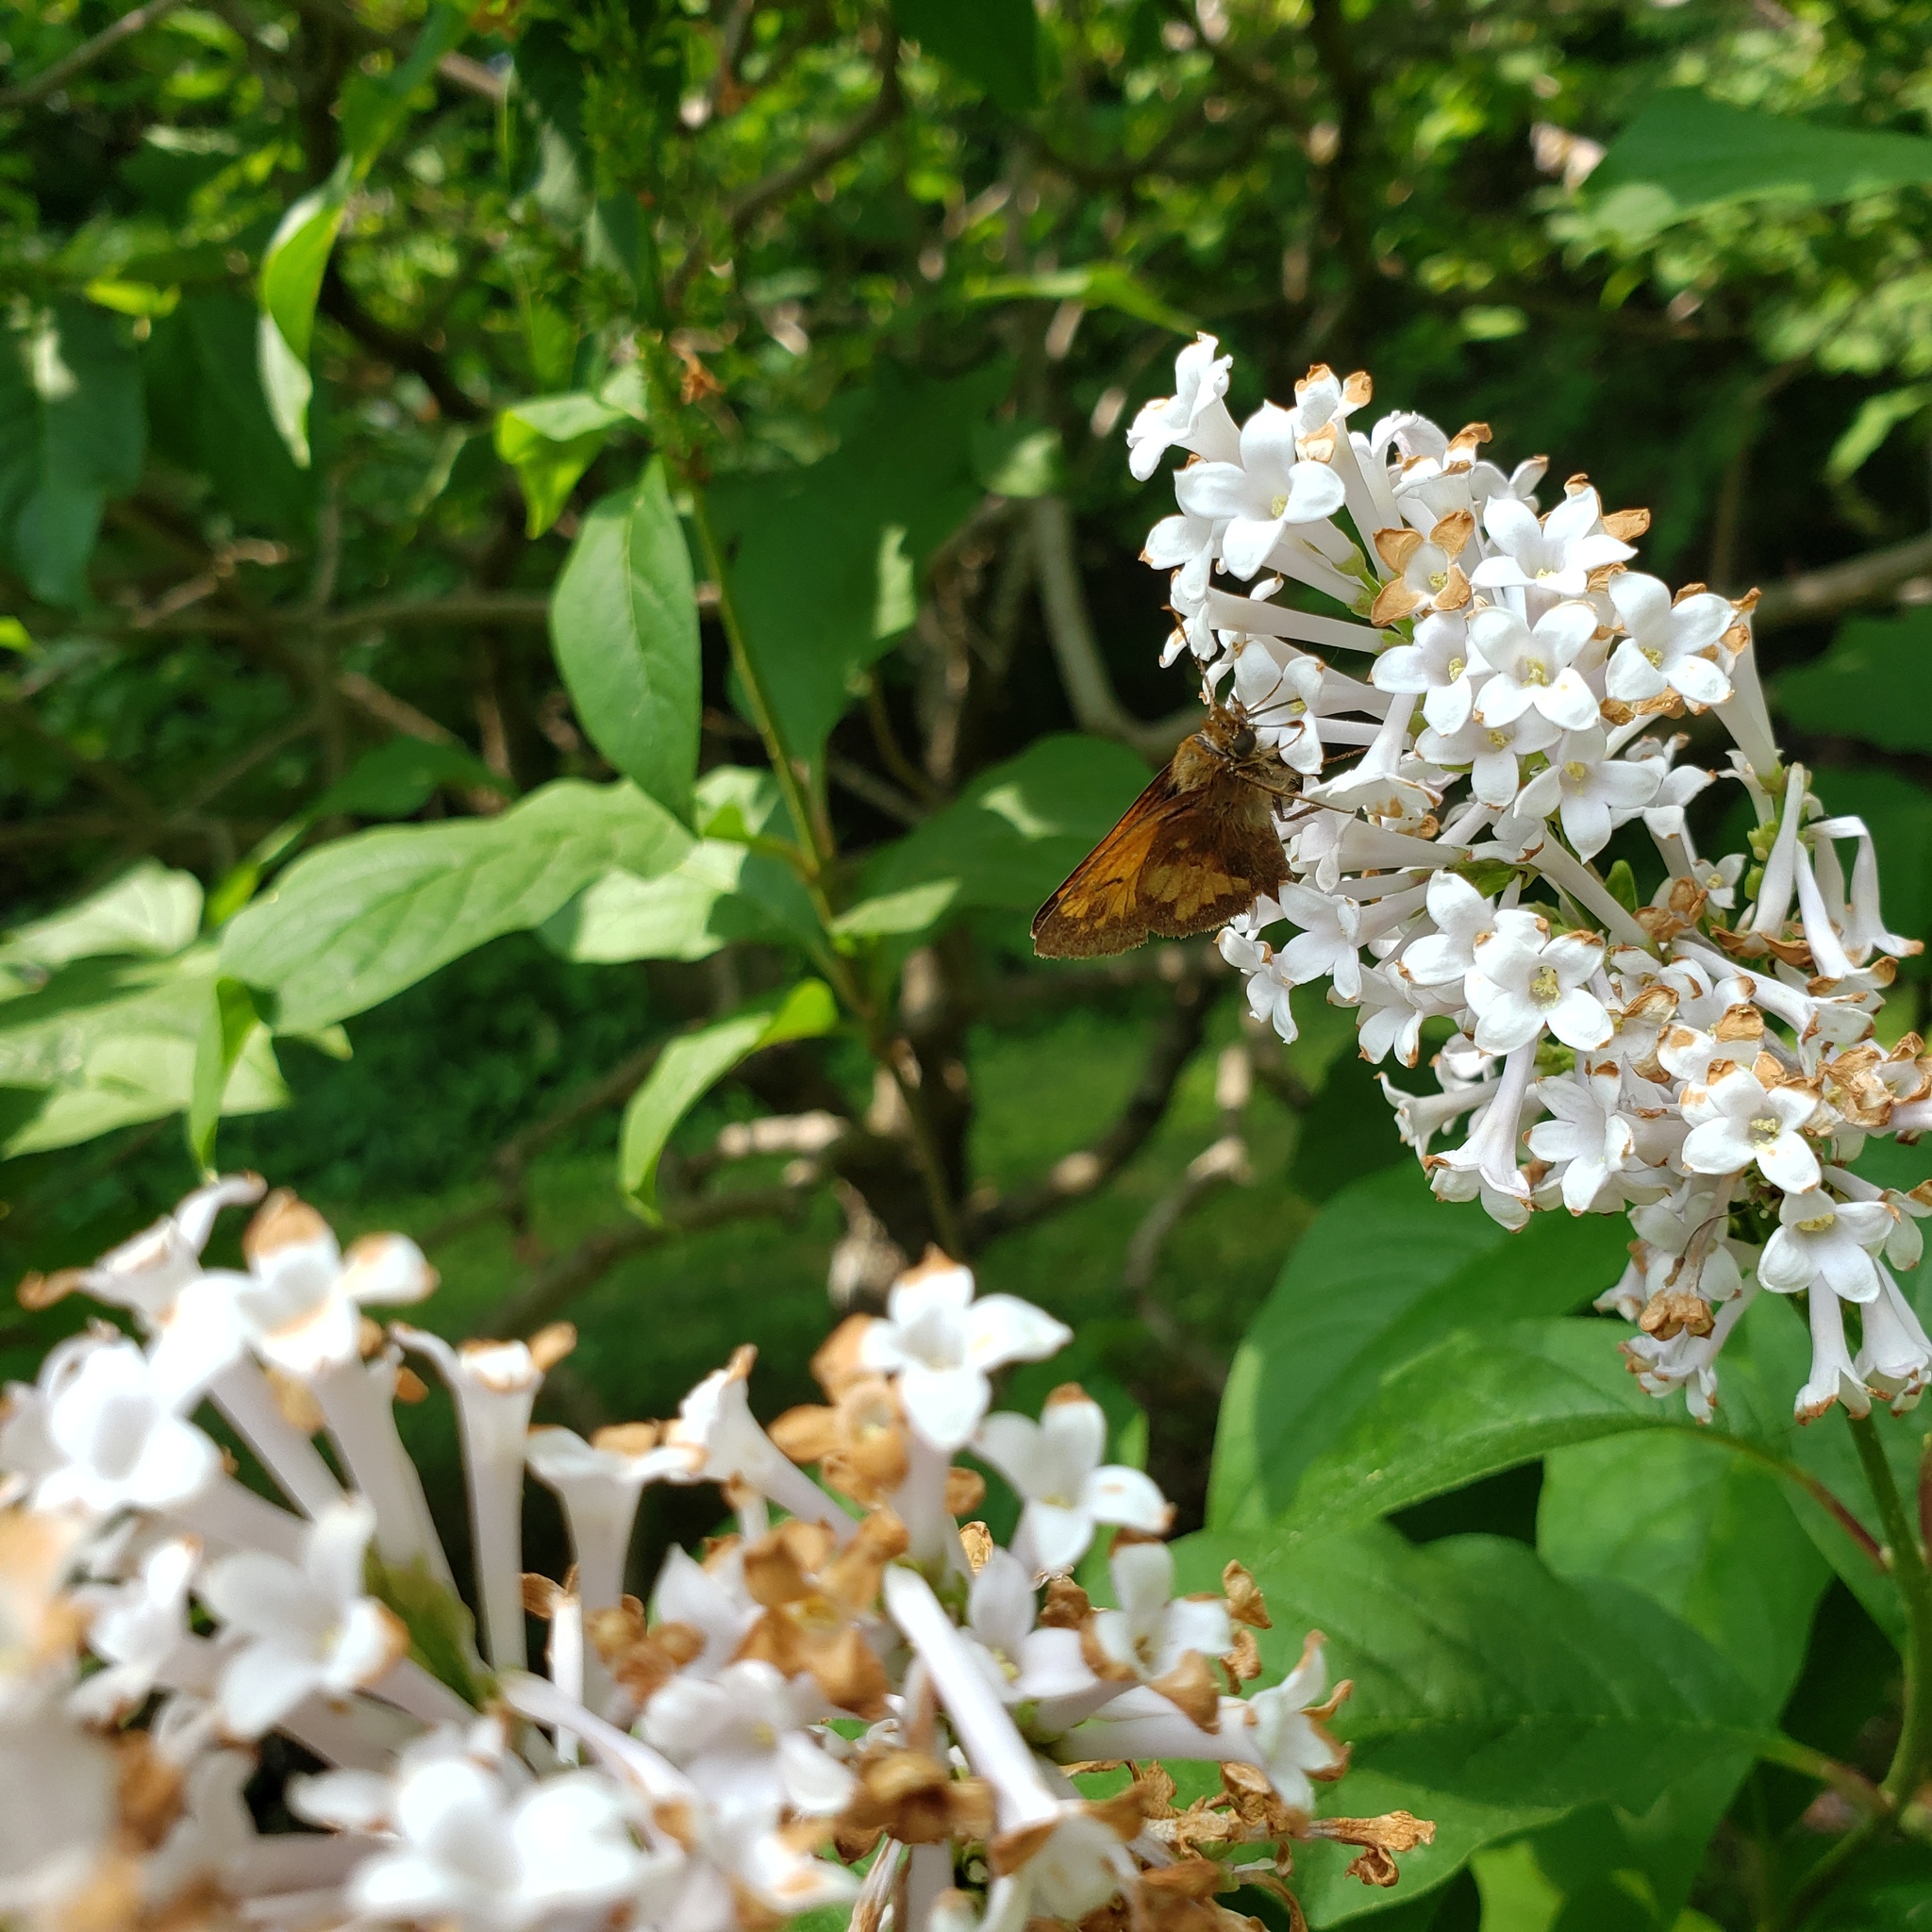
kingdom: Animalia
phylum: Arthropoda
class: Insecta
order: Lepidoptera
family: Hesperiidae
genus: Lon
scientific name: Lon hobomok
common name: Hobomok skipper
